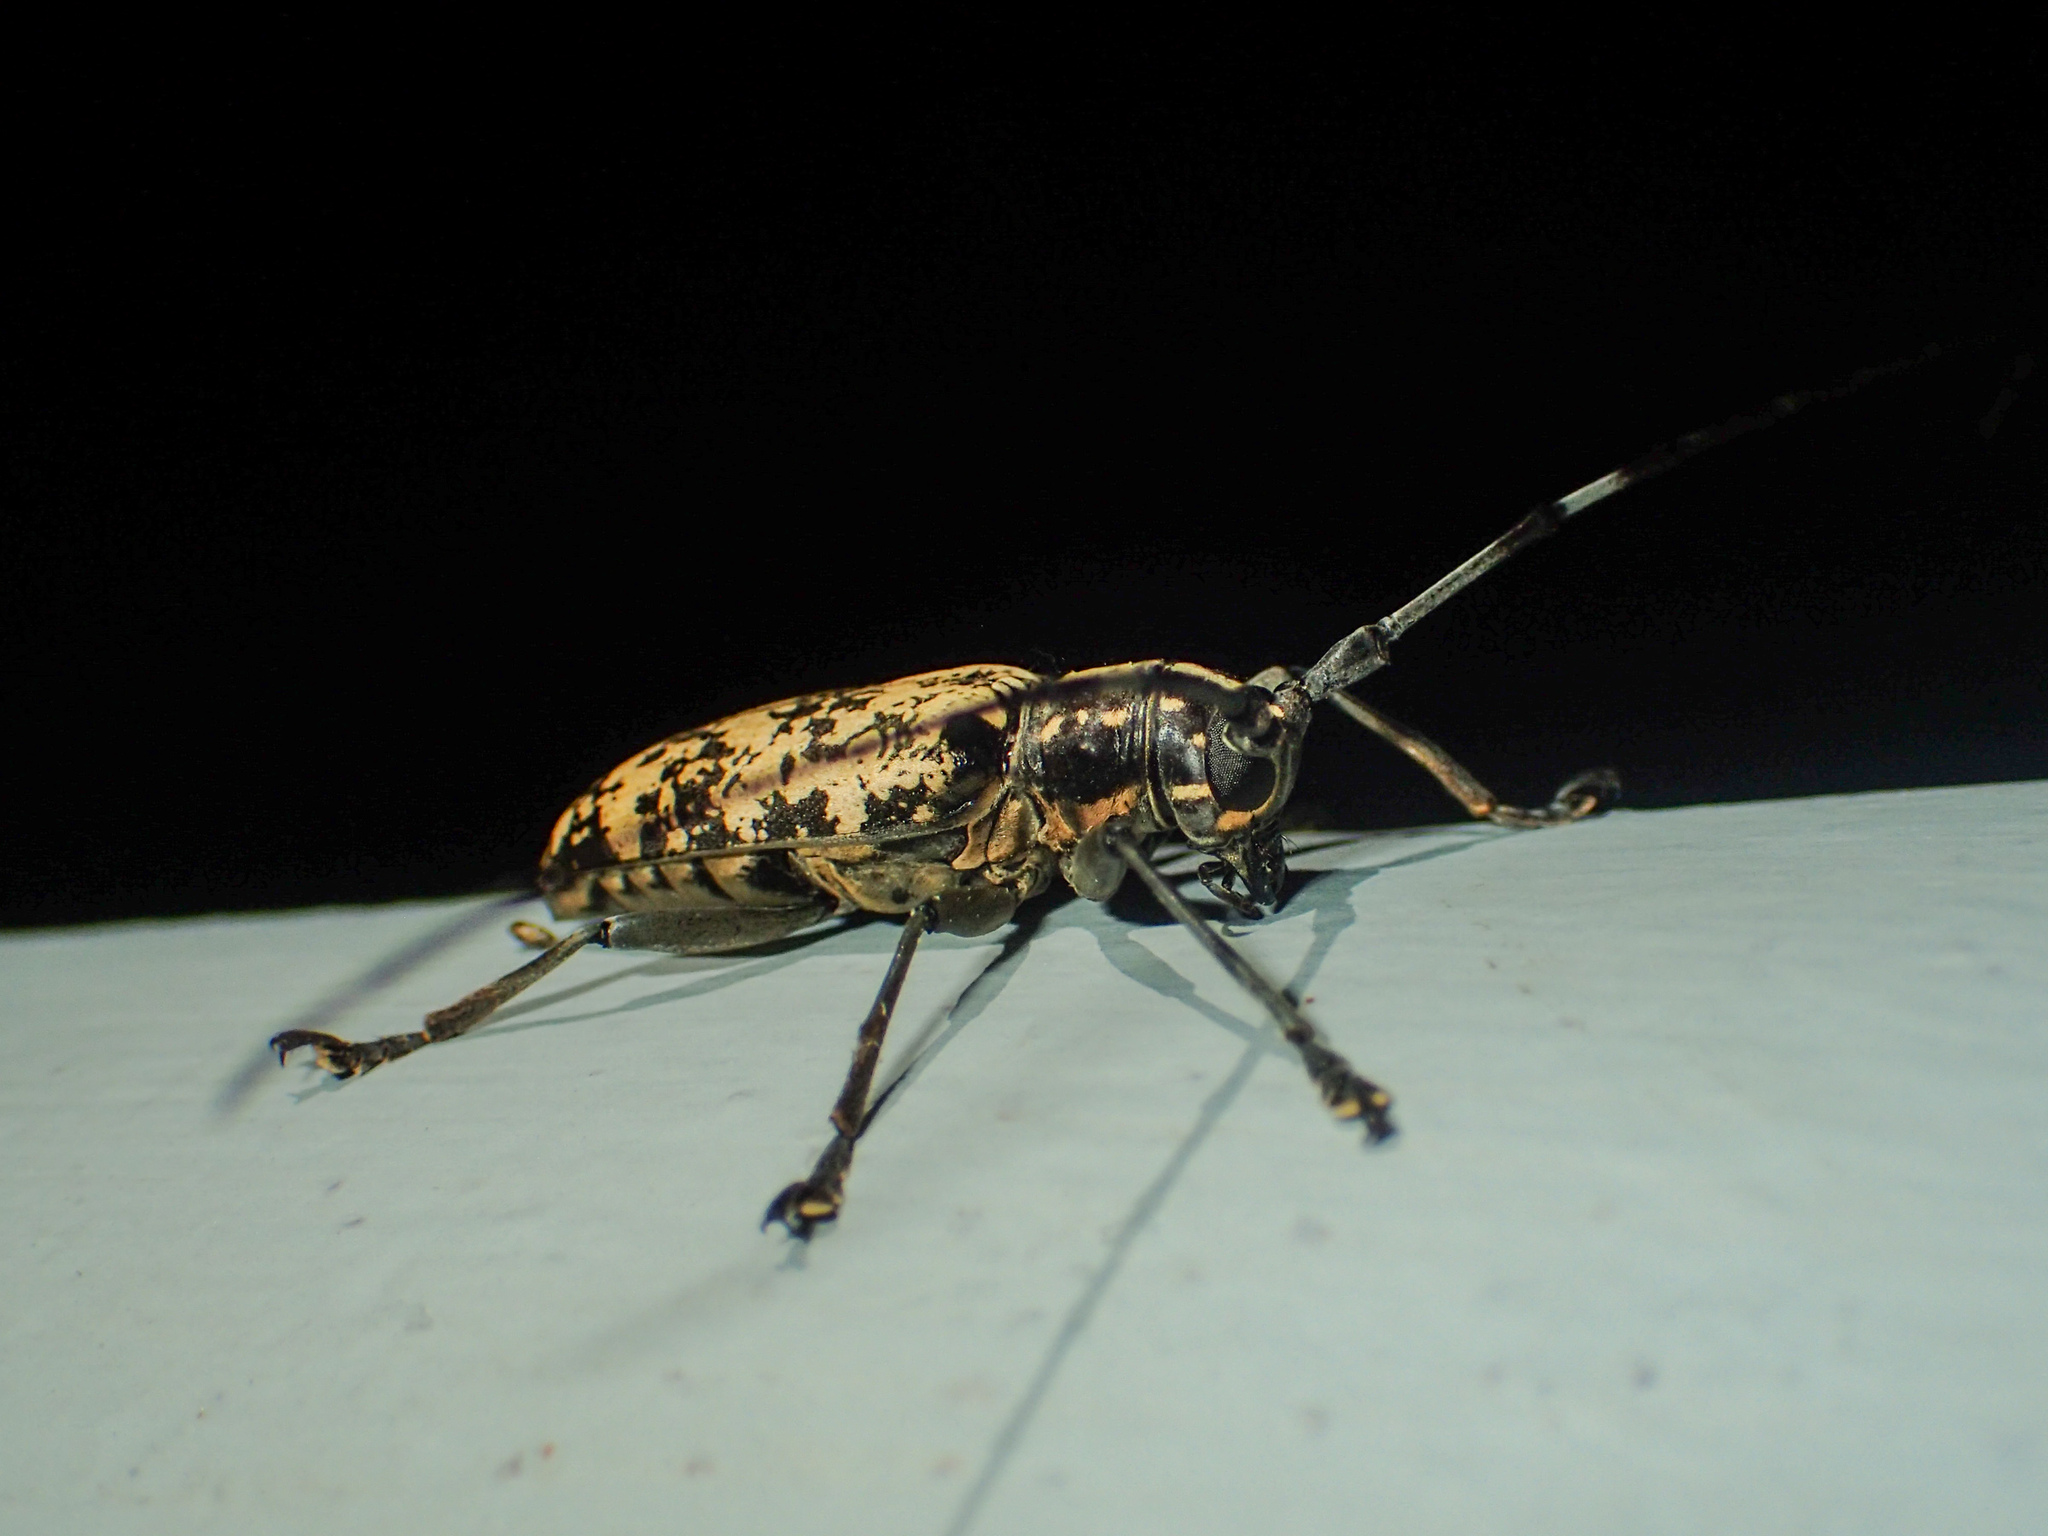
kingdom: Animalia
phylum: Arthropoda
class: Insecta
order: Coleoptera
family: Cerambycidae
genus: Epepeotes
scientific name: Epepeotes luscus
